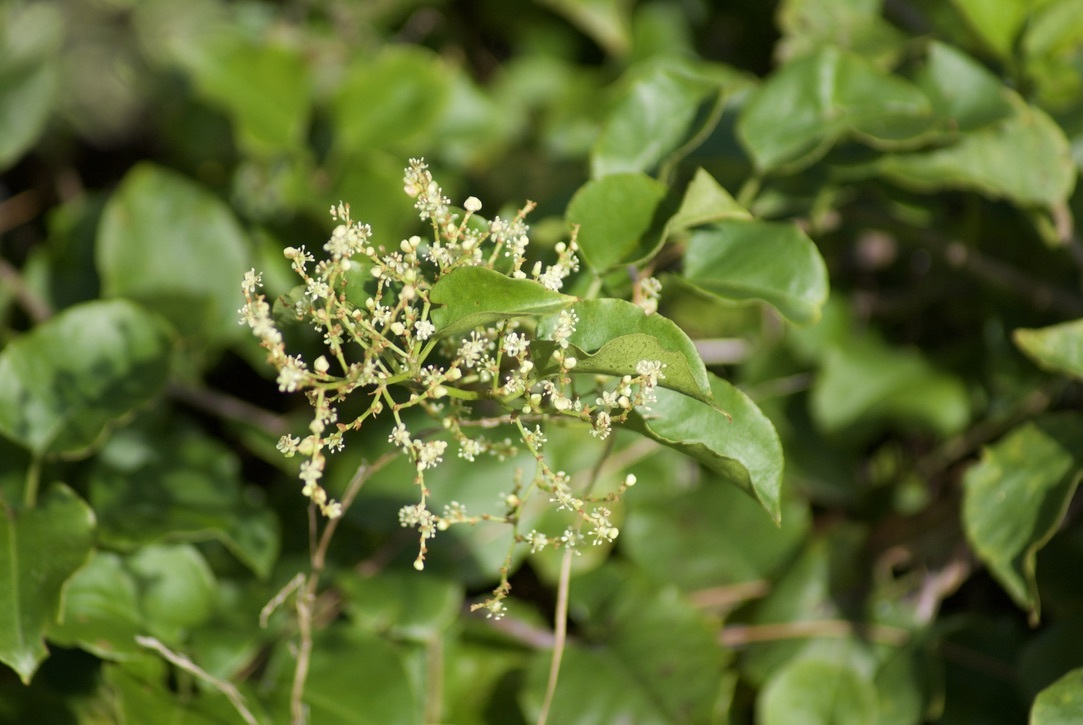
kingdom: Plantae
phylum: Tracheophyta
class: Magnoliopsida
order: Caryophyllales
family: Polygonaceae
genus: Muehlenbeckia
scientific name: Muehlenbeckia australis
